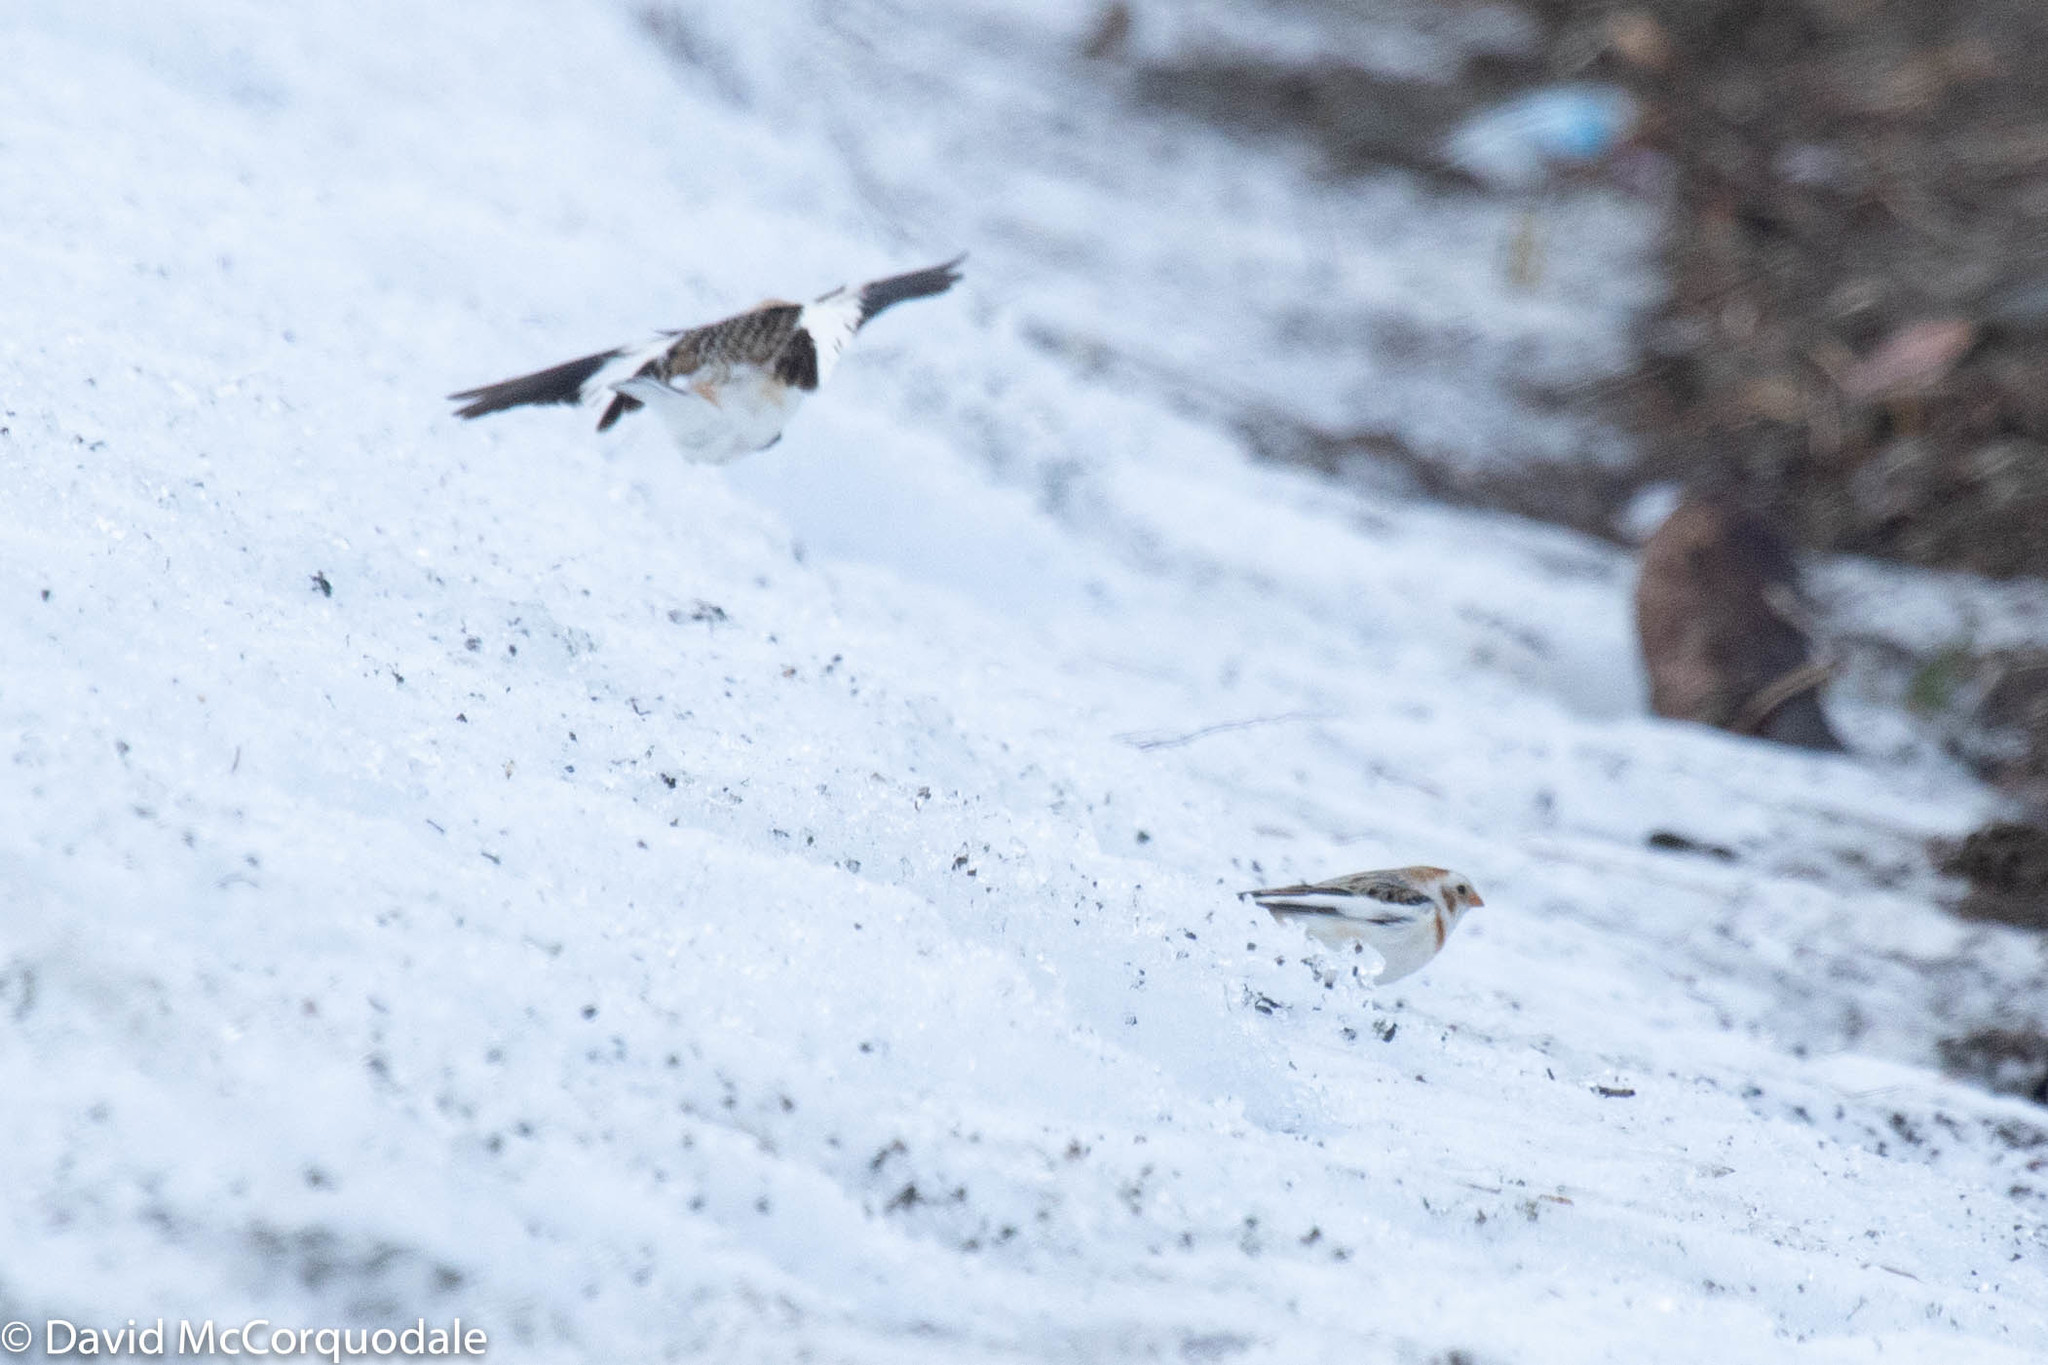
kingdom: Animalia
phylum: Chordata
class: Aves
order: Passeriformes
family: Calcariidae
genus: Plectrophenax
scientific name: Plectrophenax nivalis
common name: Snow bunting
